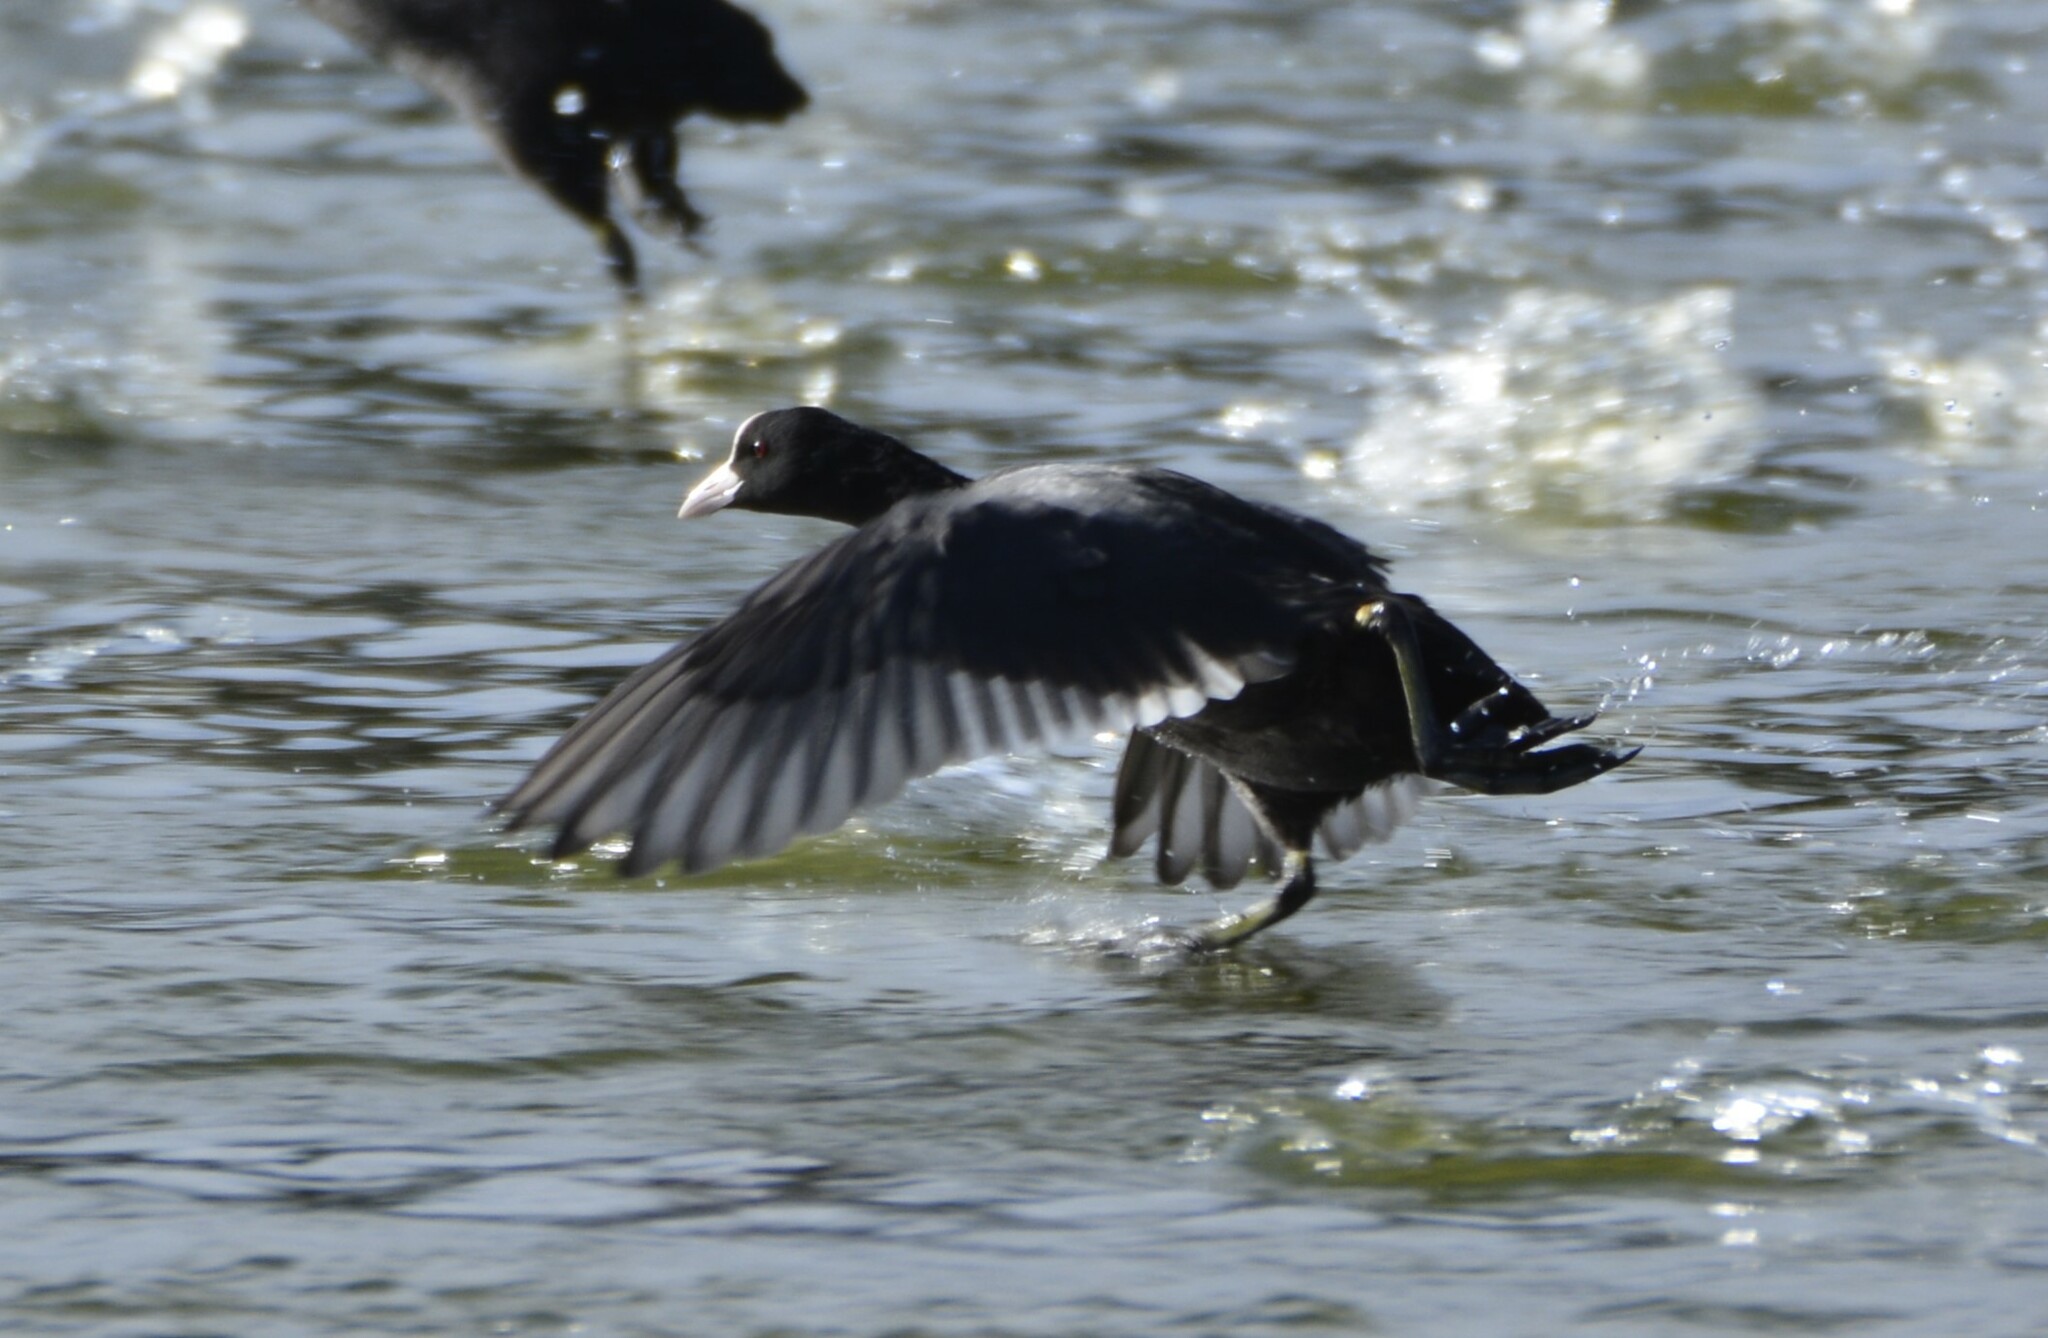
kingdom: Animalia
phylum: Chordata
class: Aves
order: Gruiformes
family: Rallidae
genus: Fulica
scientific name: Fulica atra
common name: Eurasian coot
